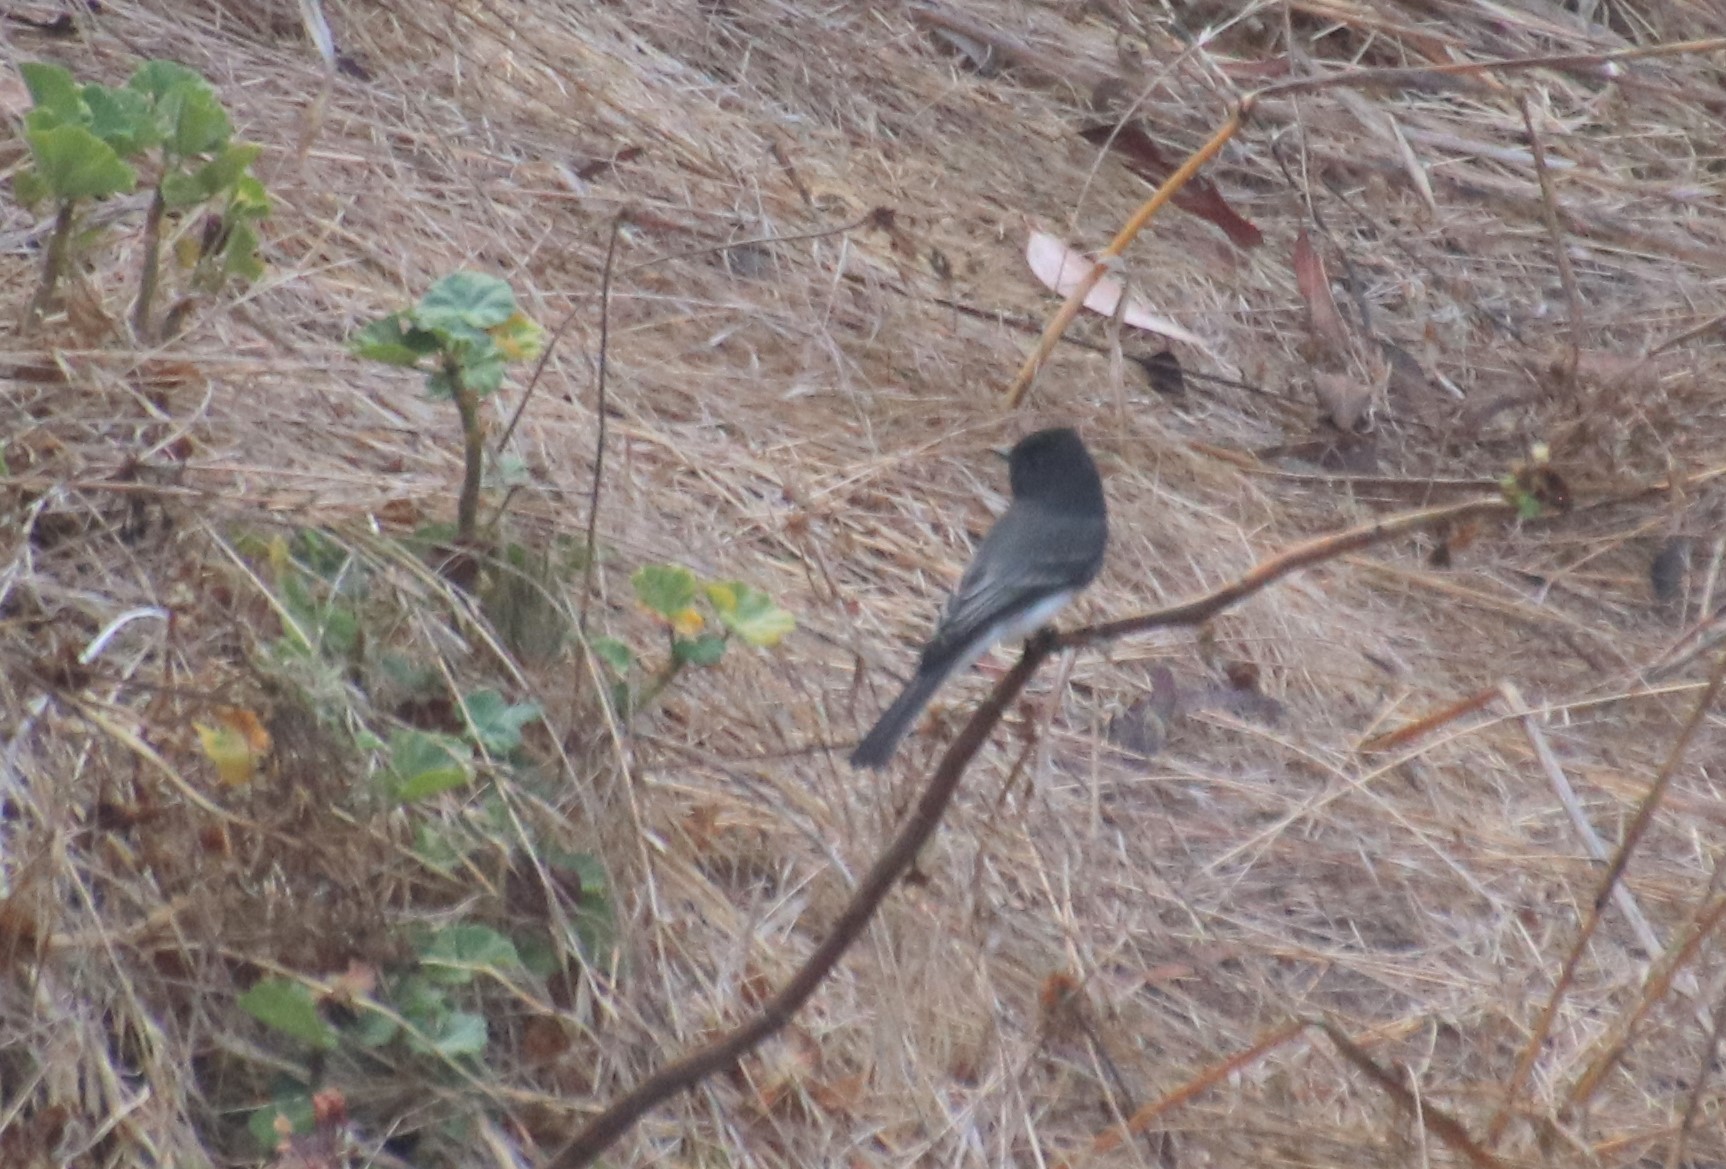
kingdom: Animalia
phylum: Chordata
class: Aves
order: Passeriformes
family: Tyrannidae
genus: Sayornis
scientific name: Sayornis nigricans
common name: Black phoebe
